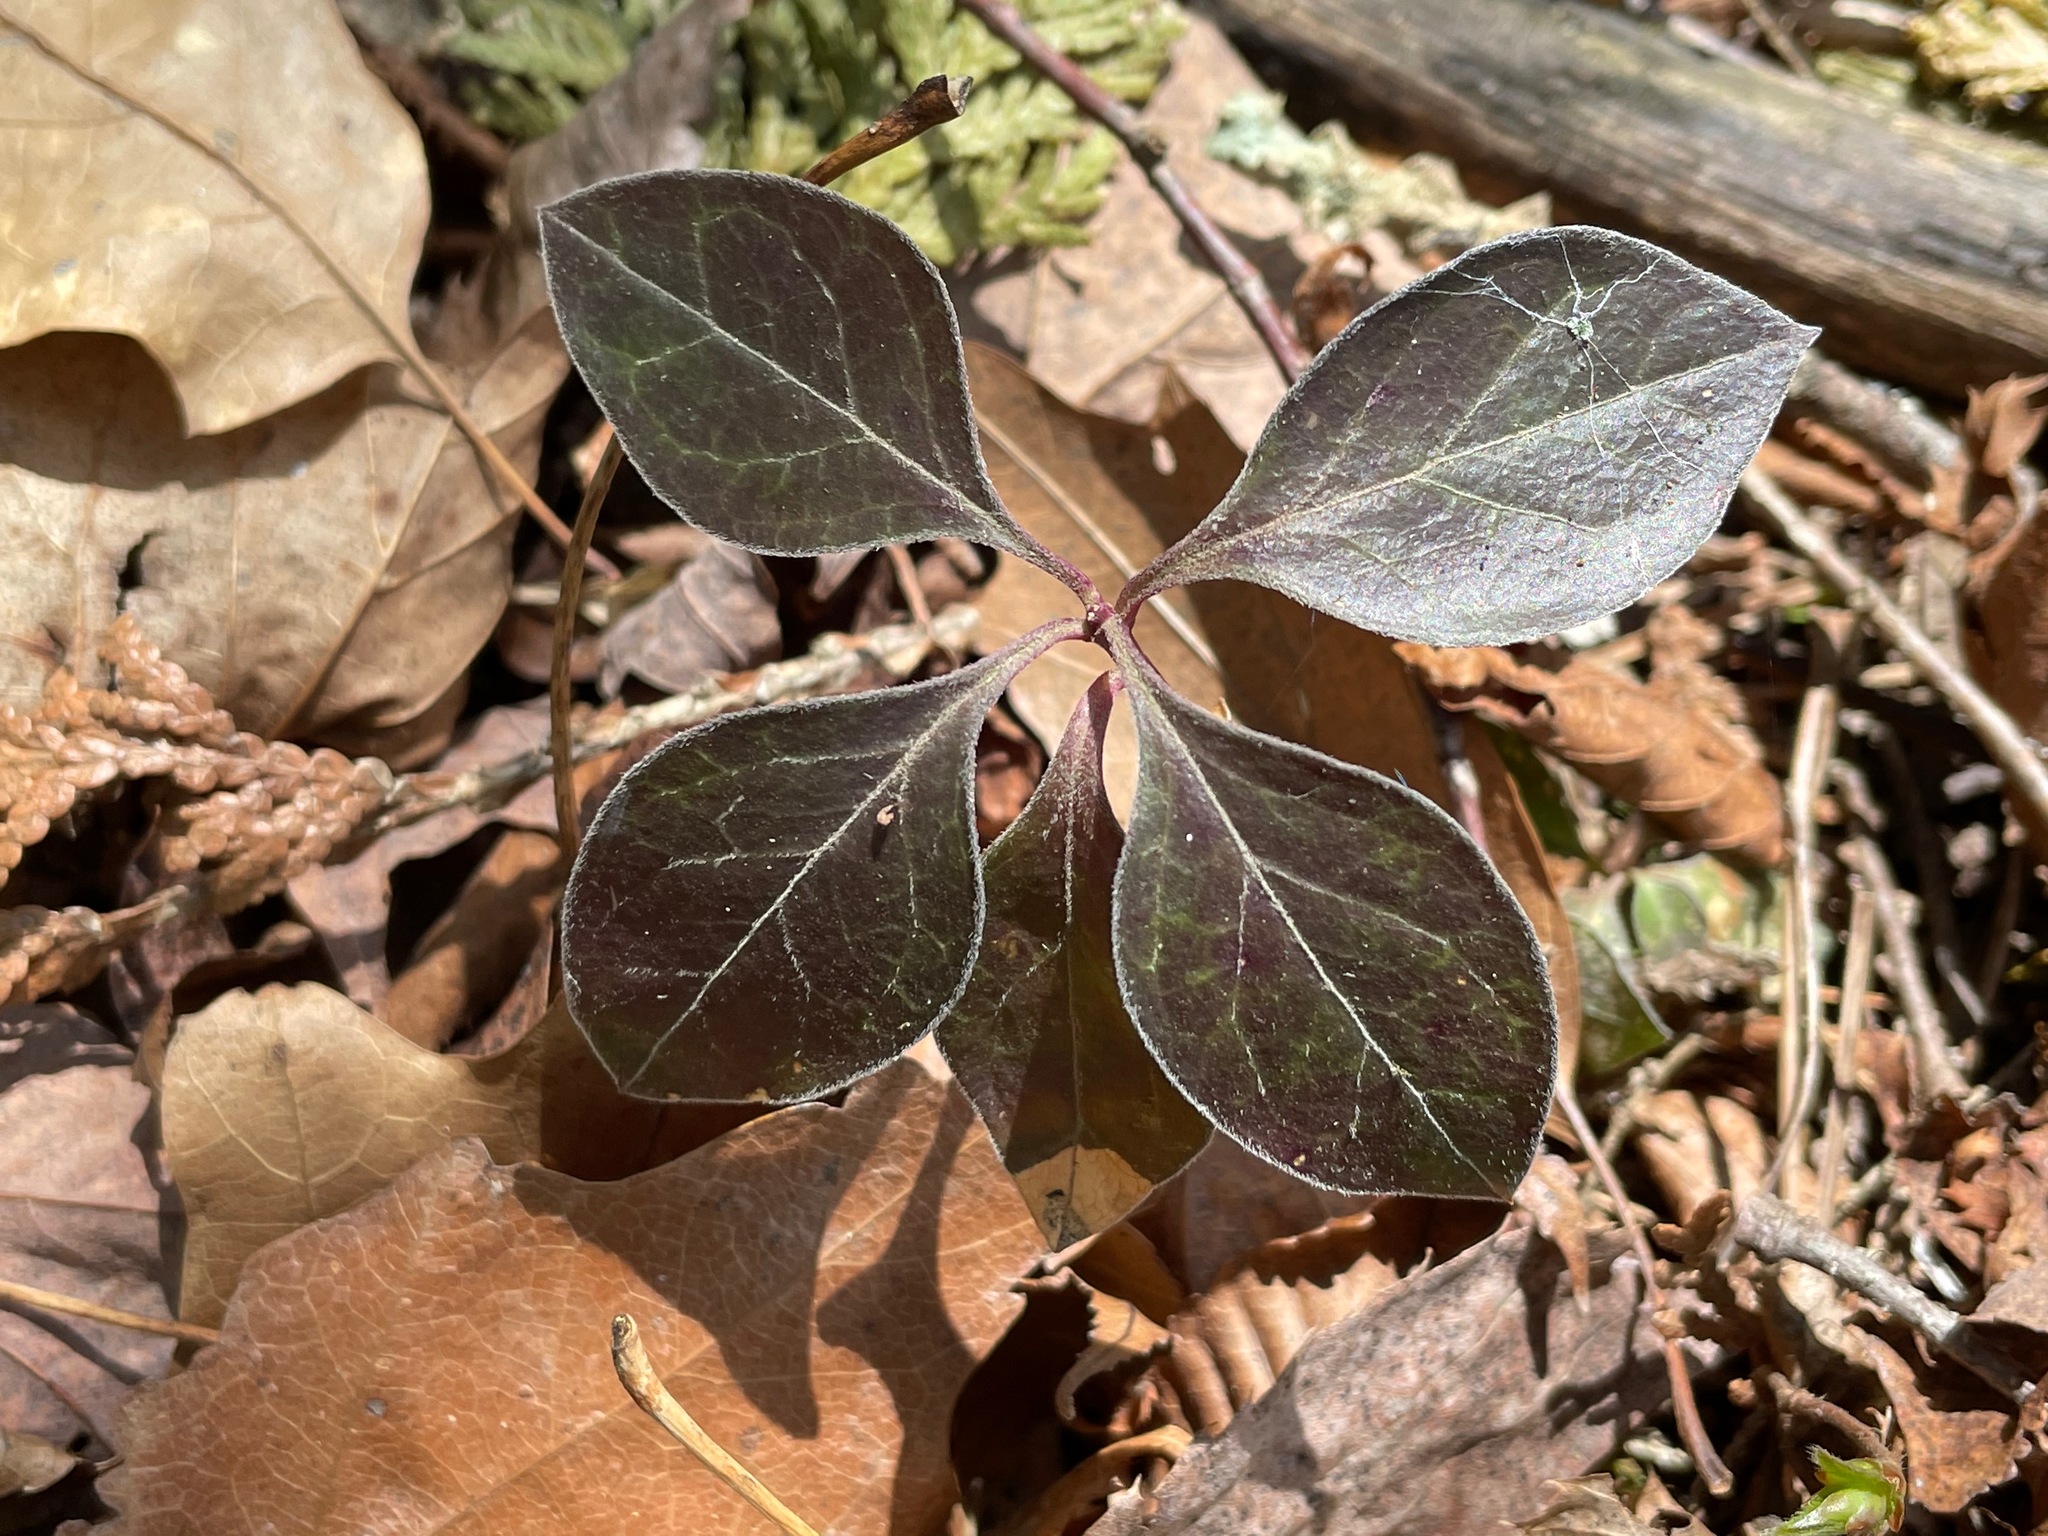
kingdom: Plantae
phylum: Tracheophyta
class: Magnoliopsida
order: Fabales
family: Polygalaceae
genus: Polygaloides
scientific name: Polygaloides paucifolia
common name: Bird-on-the-wing
